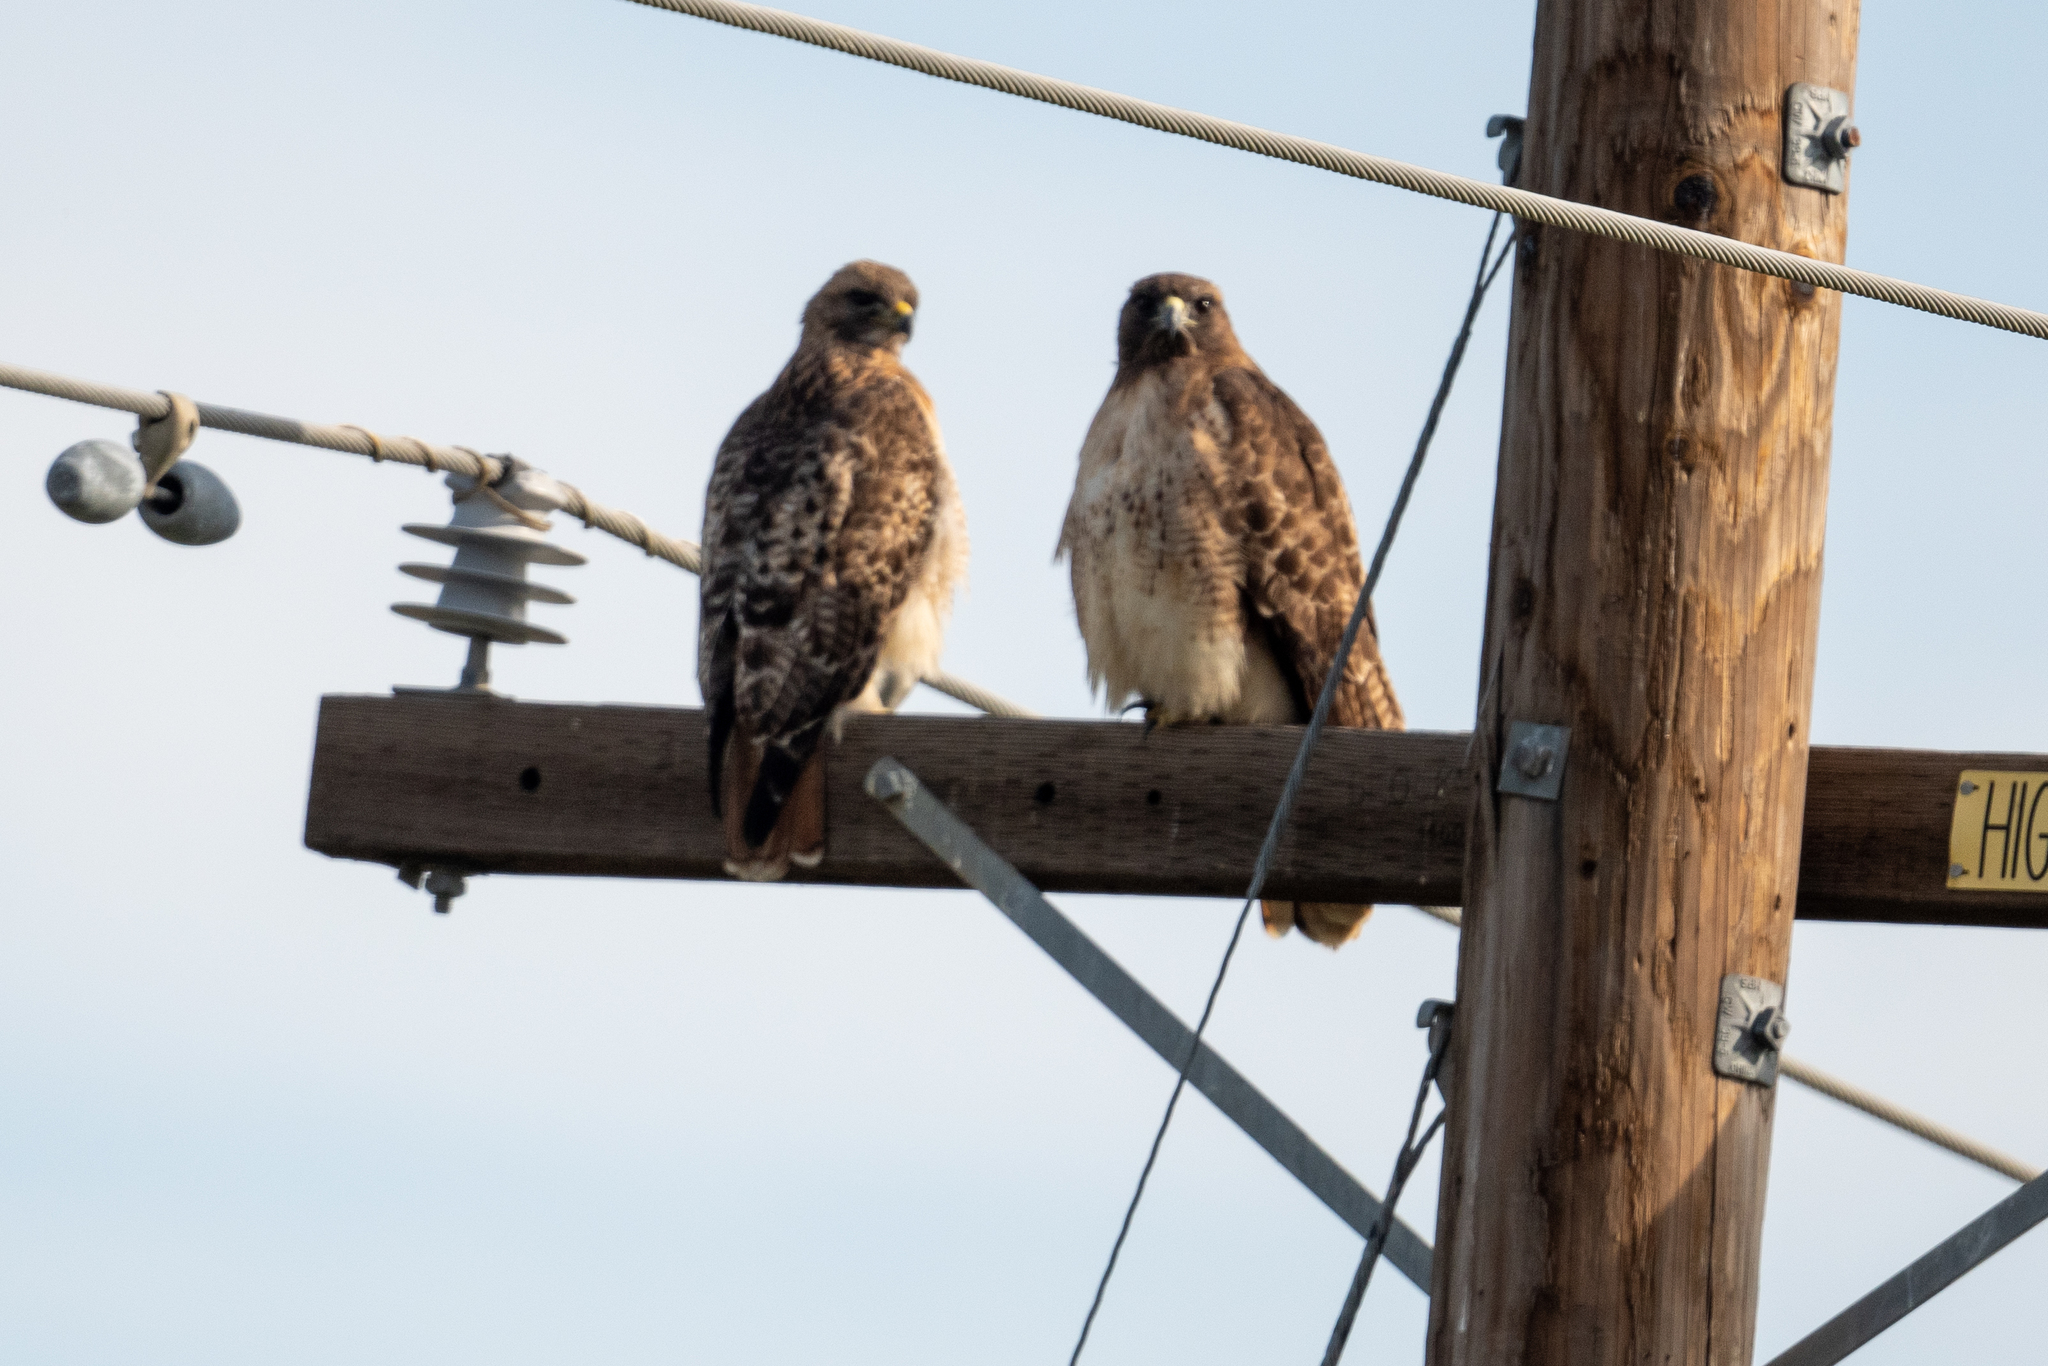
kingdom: Animalia
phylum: Chordata
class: Aves
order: Accipitriformes
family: Accipitridae
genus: Buteo
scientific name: Buteo jamaicensis
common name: Red-tailed hawk
